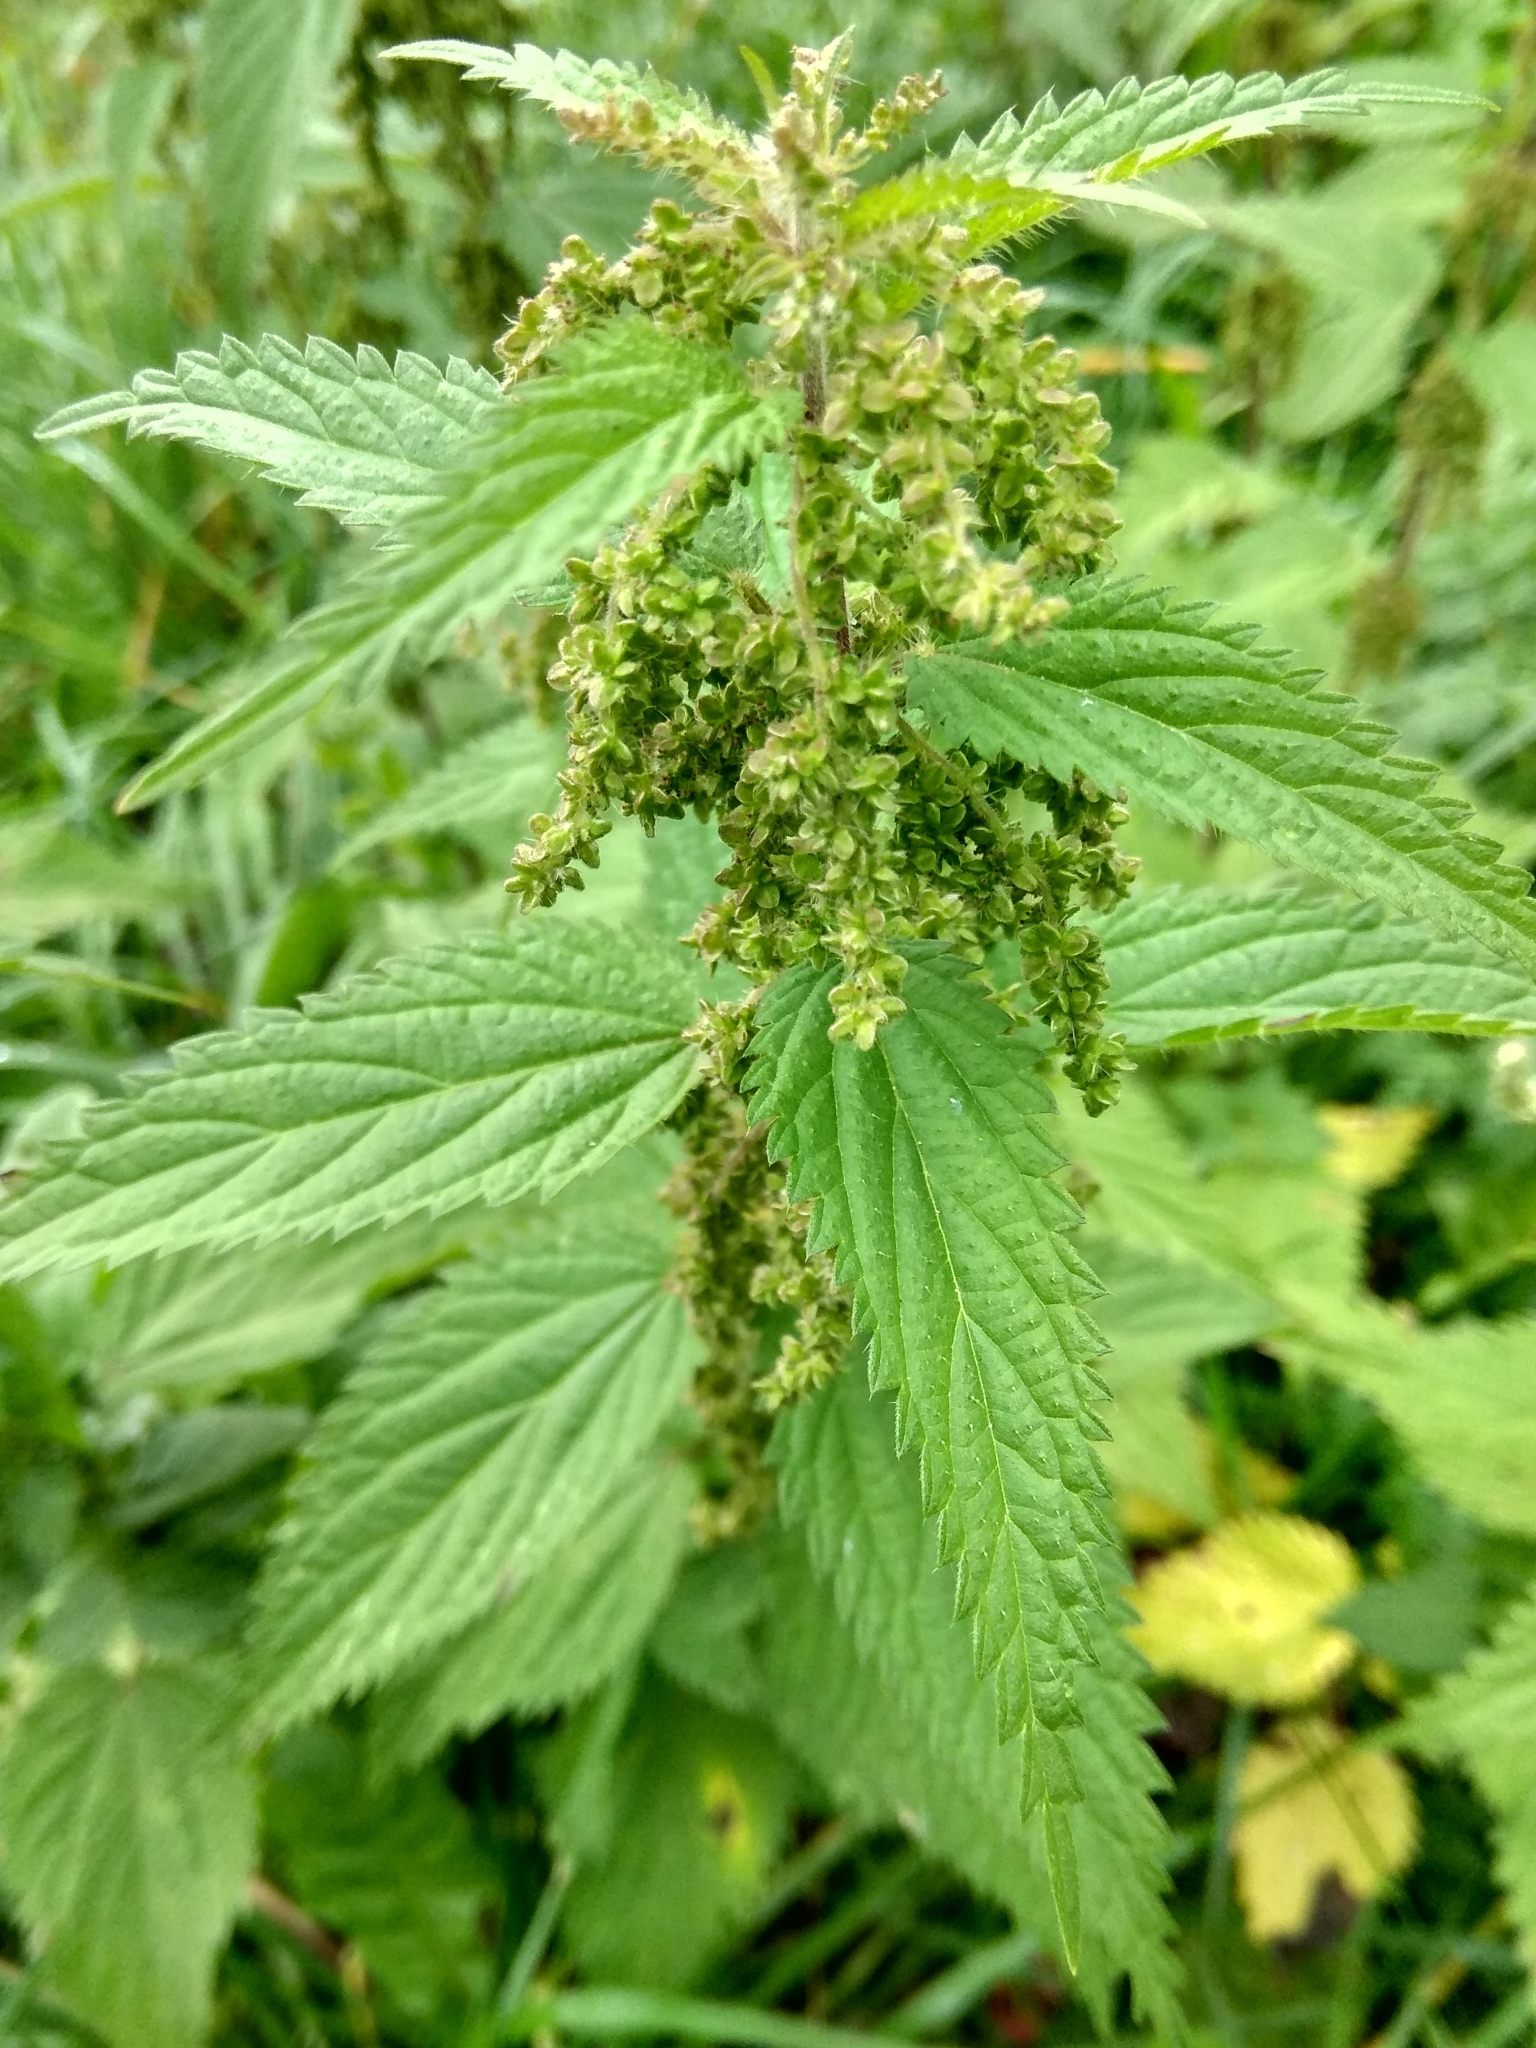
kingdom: Plantae
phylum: Tracheophyta
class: Magnoliopsida
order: Rosales
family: Urticaceae
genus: Urtica
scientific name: Urtica dioica
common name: Common nettle
